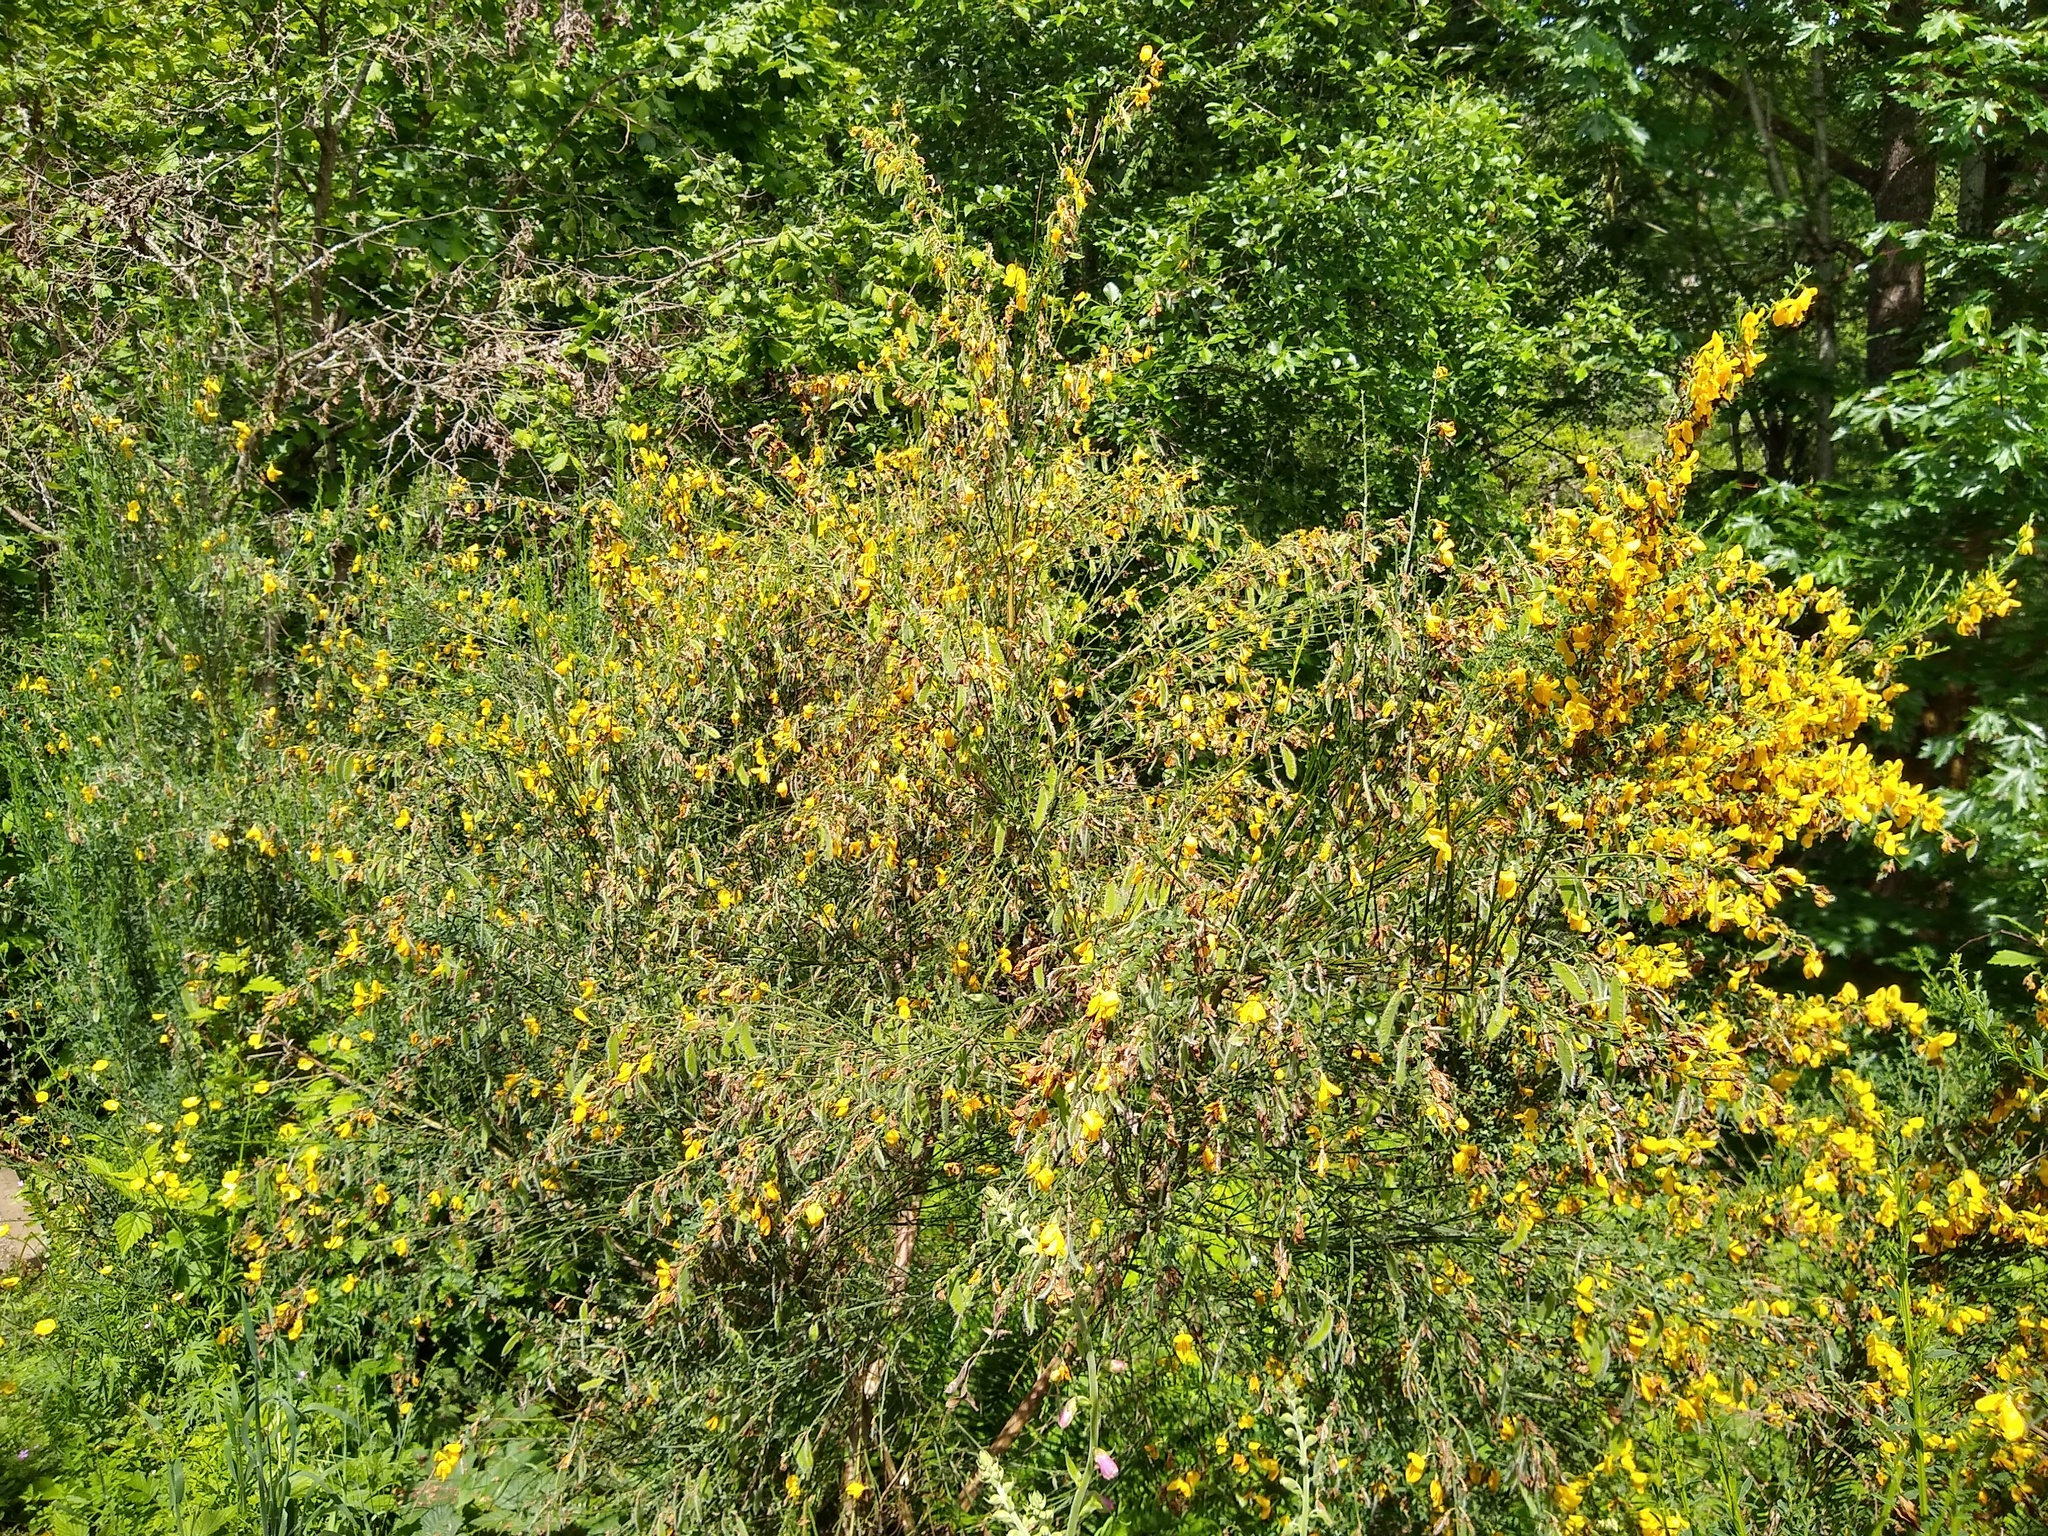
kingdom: Plantae
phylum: Tracheophyta
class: Magnoliopsida
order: Fabales
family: Fabaceae
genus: Cytisus
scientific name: Cytisus scoparius
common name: Scotch broom
